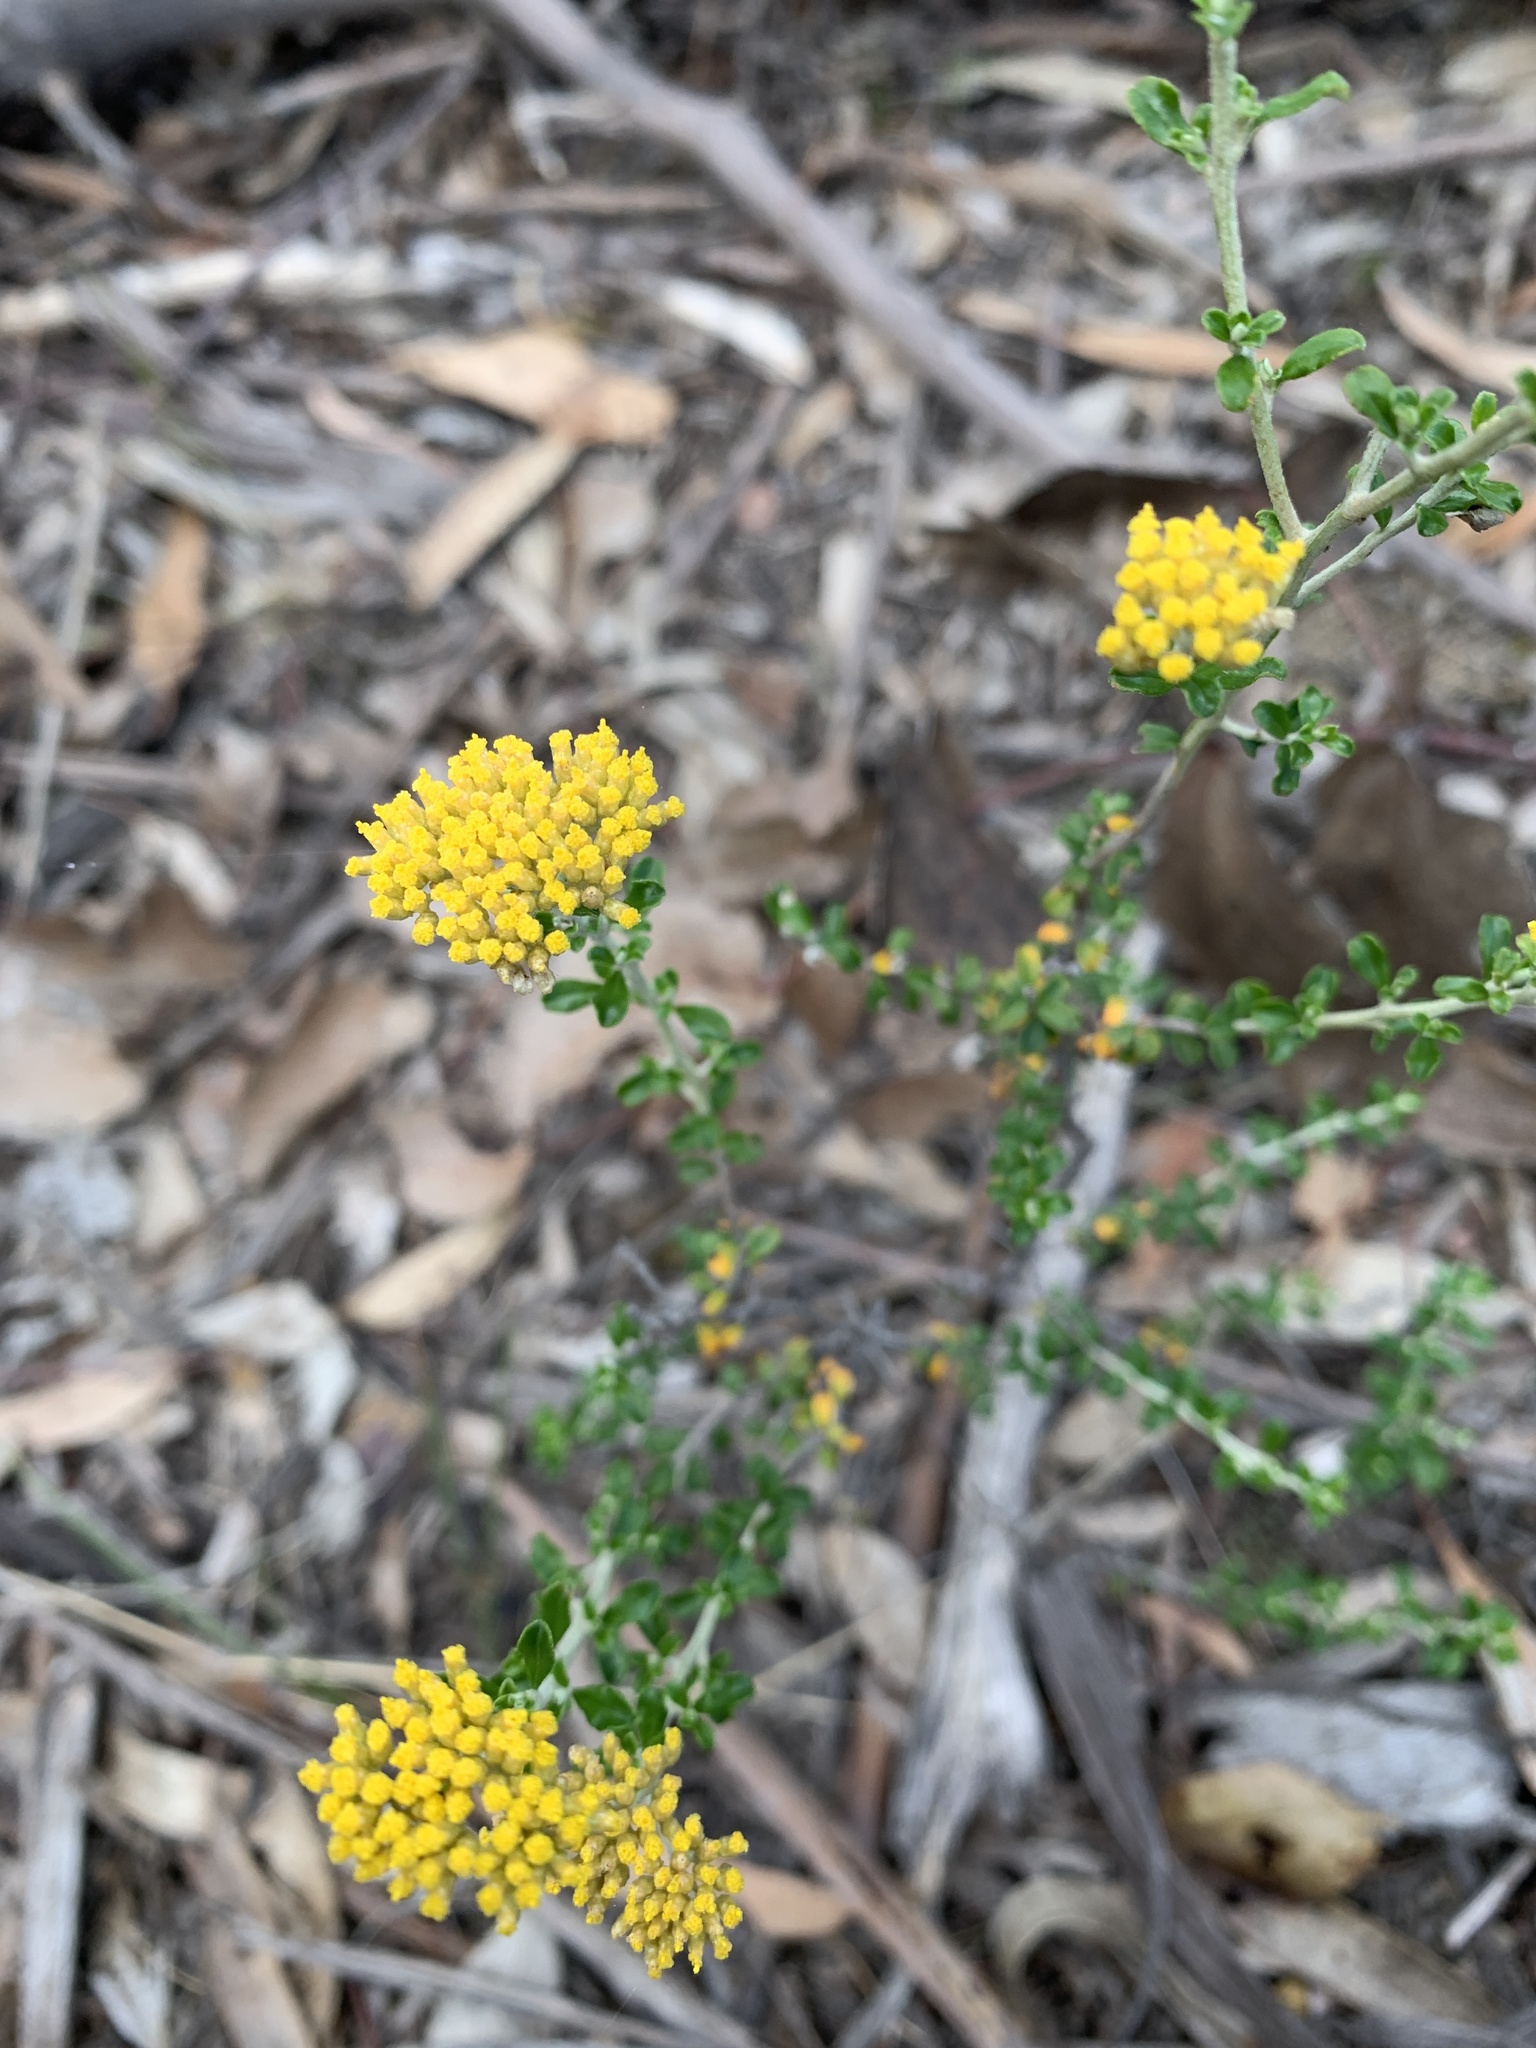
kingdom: Plantae
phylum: Tracheophyta
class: Magnoliopsida
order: Asterales
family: Asteraceae
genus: Ozothamnus
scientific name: Ozothamnus obcordatus
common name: Grey everlasting
